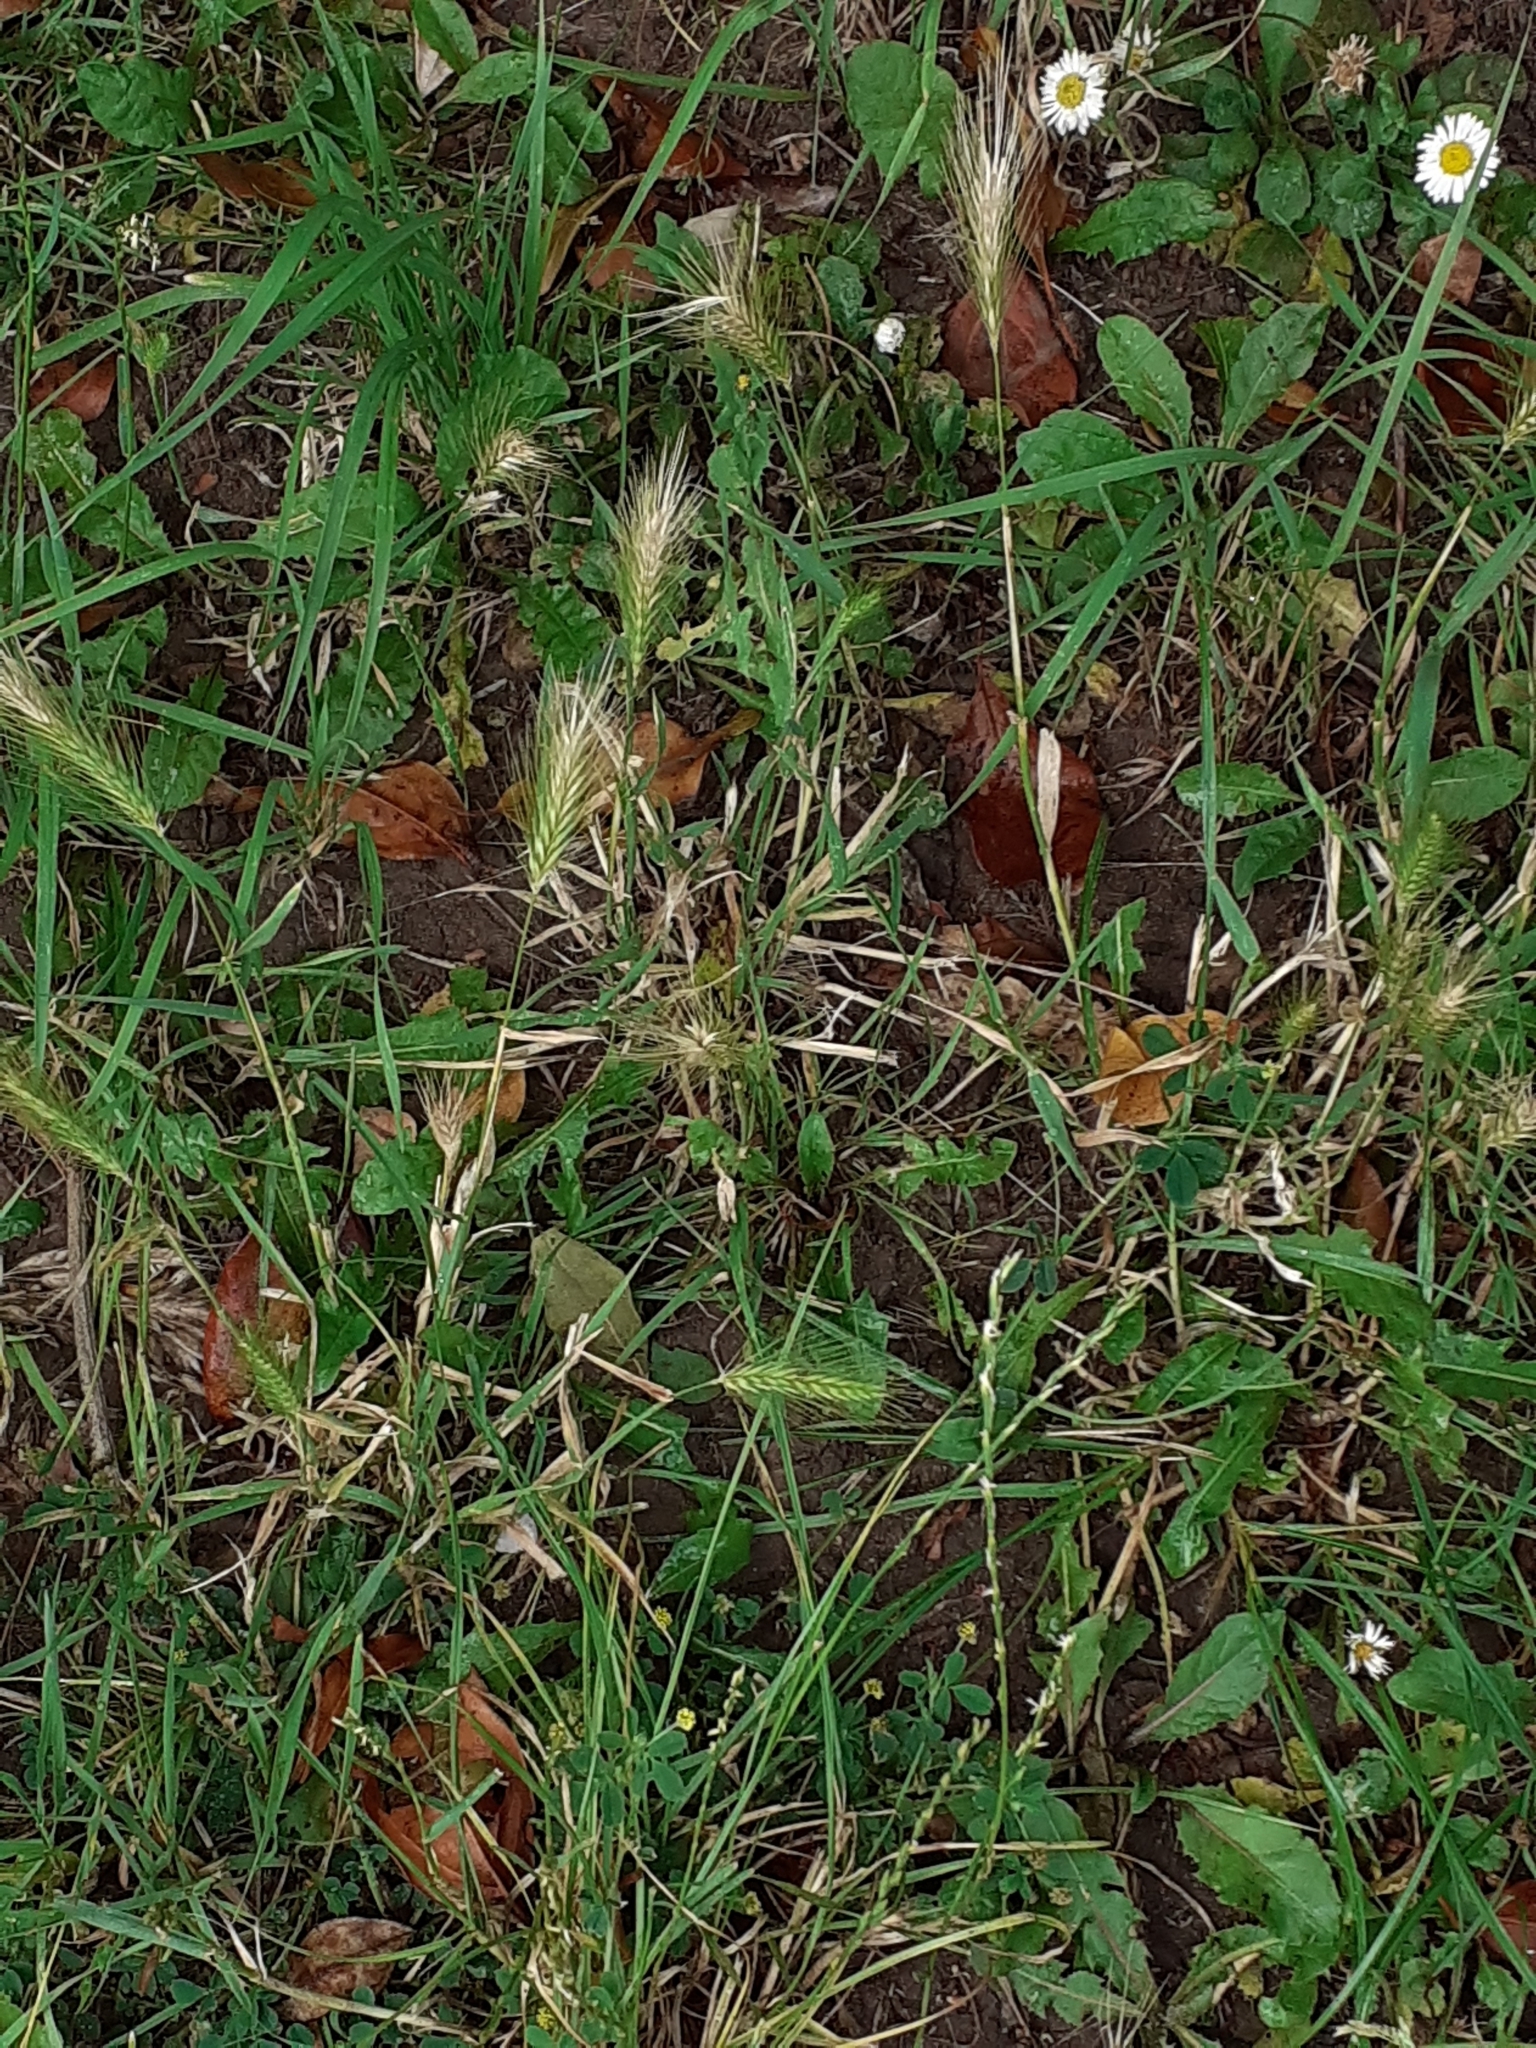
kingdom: Plantae
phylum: Tracheophyta
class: Liliopsida
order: Poales
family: Poaceae
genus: Hordeum
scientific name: Hordeum murinum
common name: Wall barley
